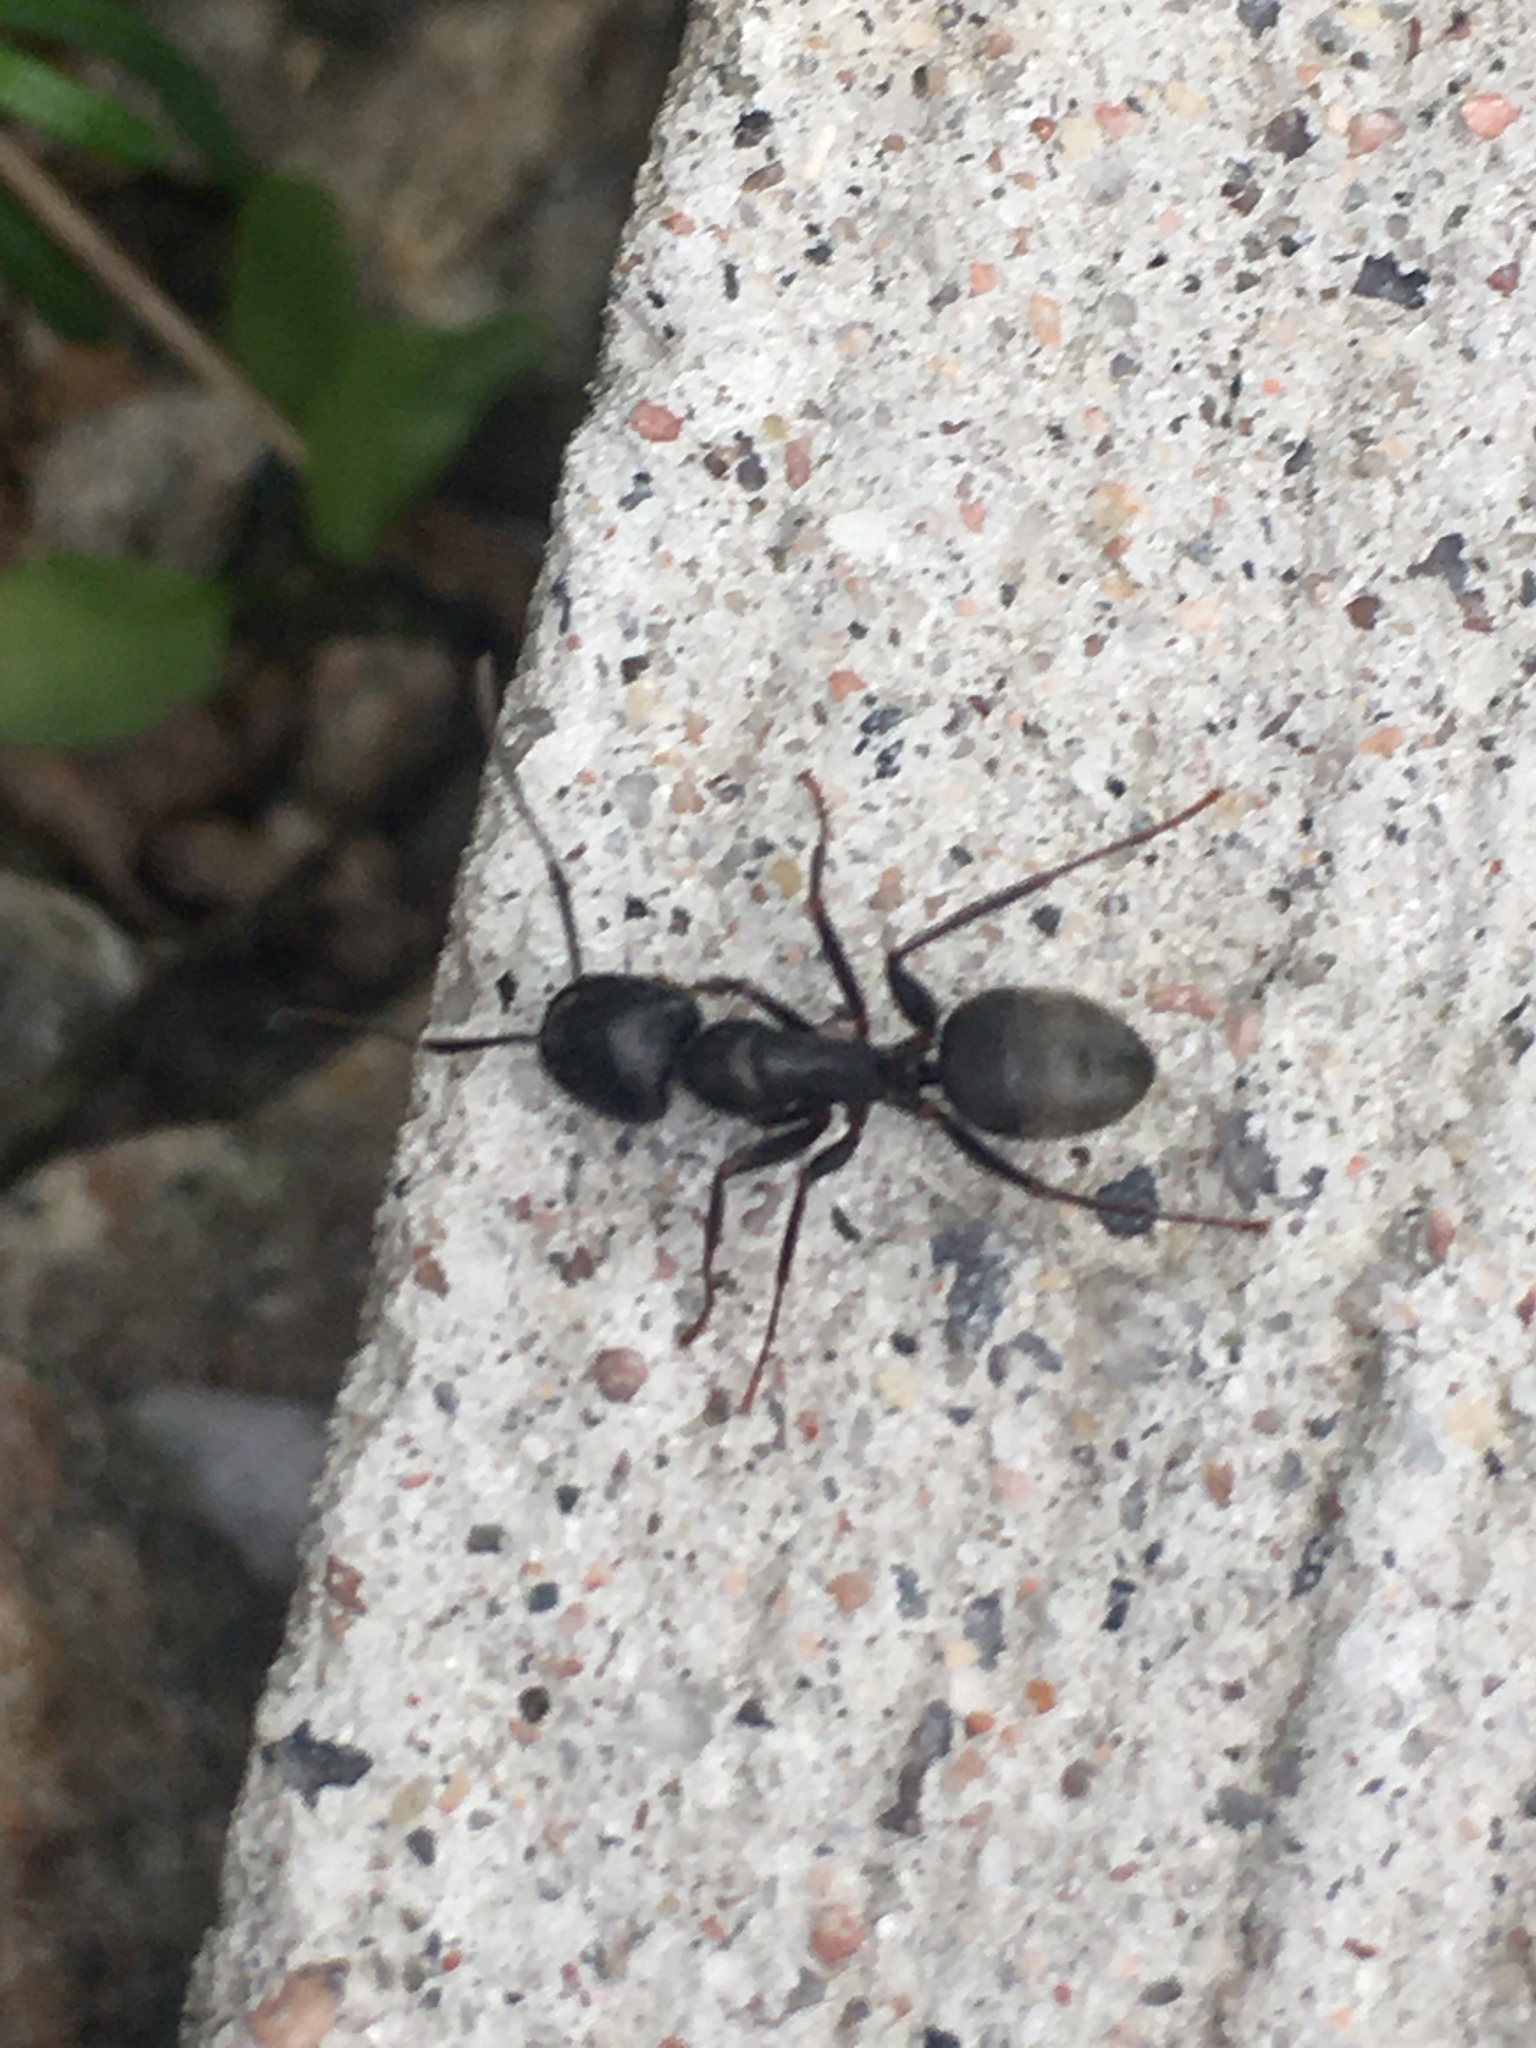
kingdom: Animalia
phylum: Arthropoda
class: Insecta
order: Hymenoptera
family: Formicidae
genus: Camponotus
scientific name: Camponotus pennsylvanicus
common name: Black carpenter ant
